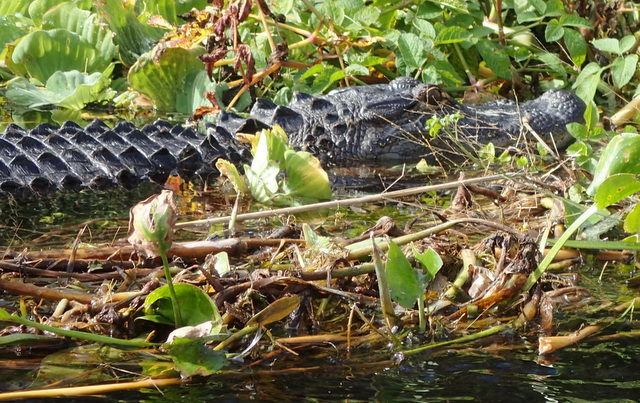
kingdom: Animalia
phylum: Chordata
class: Crocodylia
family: Alligatoridae
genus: Alligator
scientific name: Alligator mississippiensis
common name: American alligator
